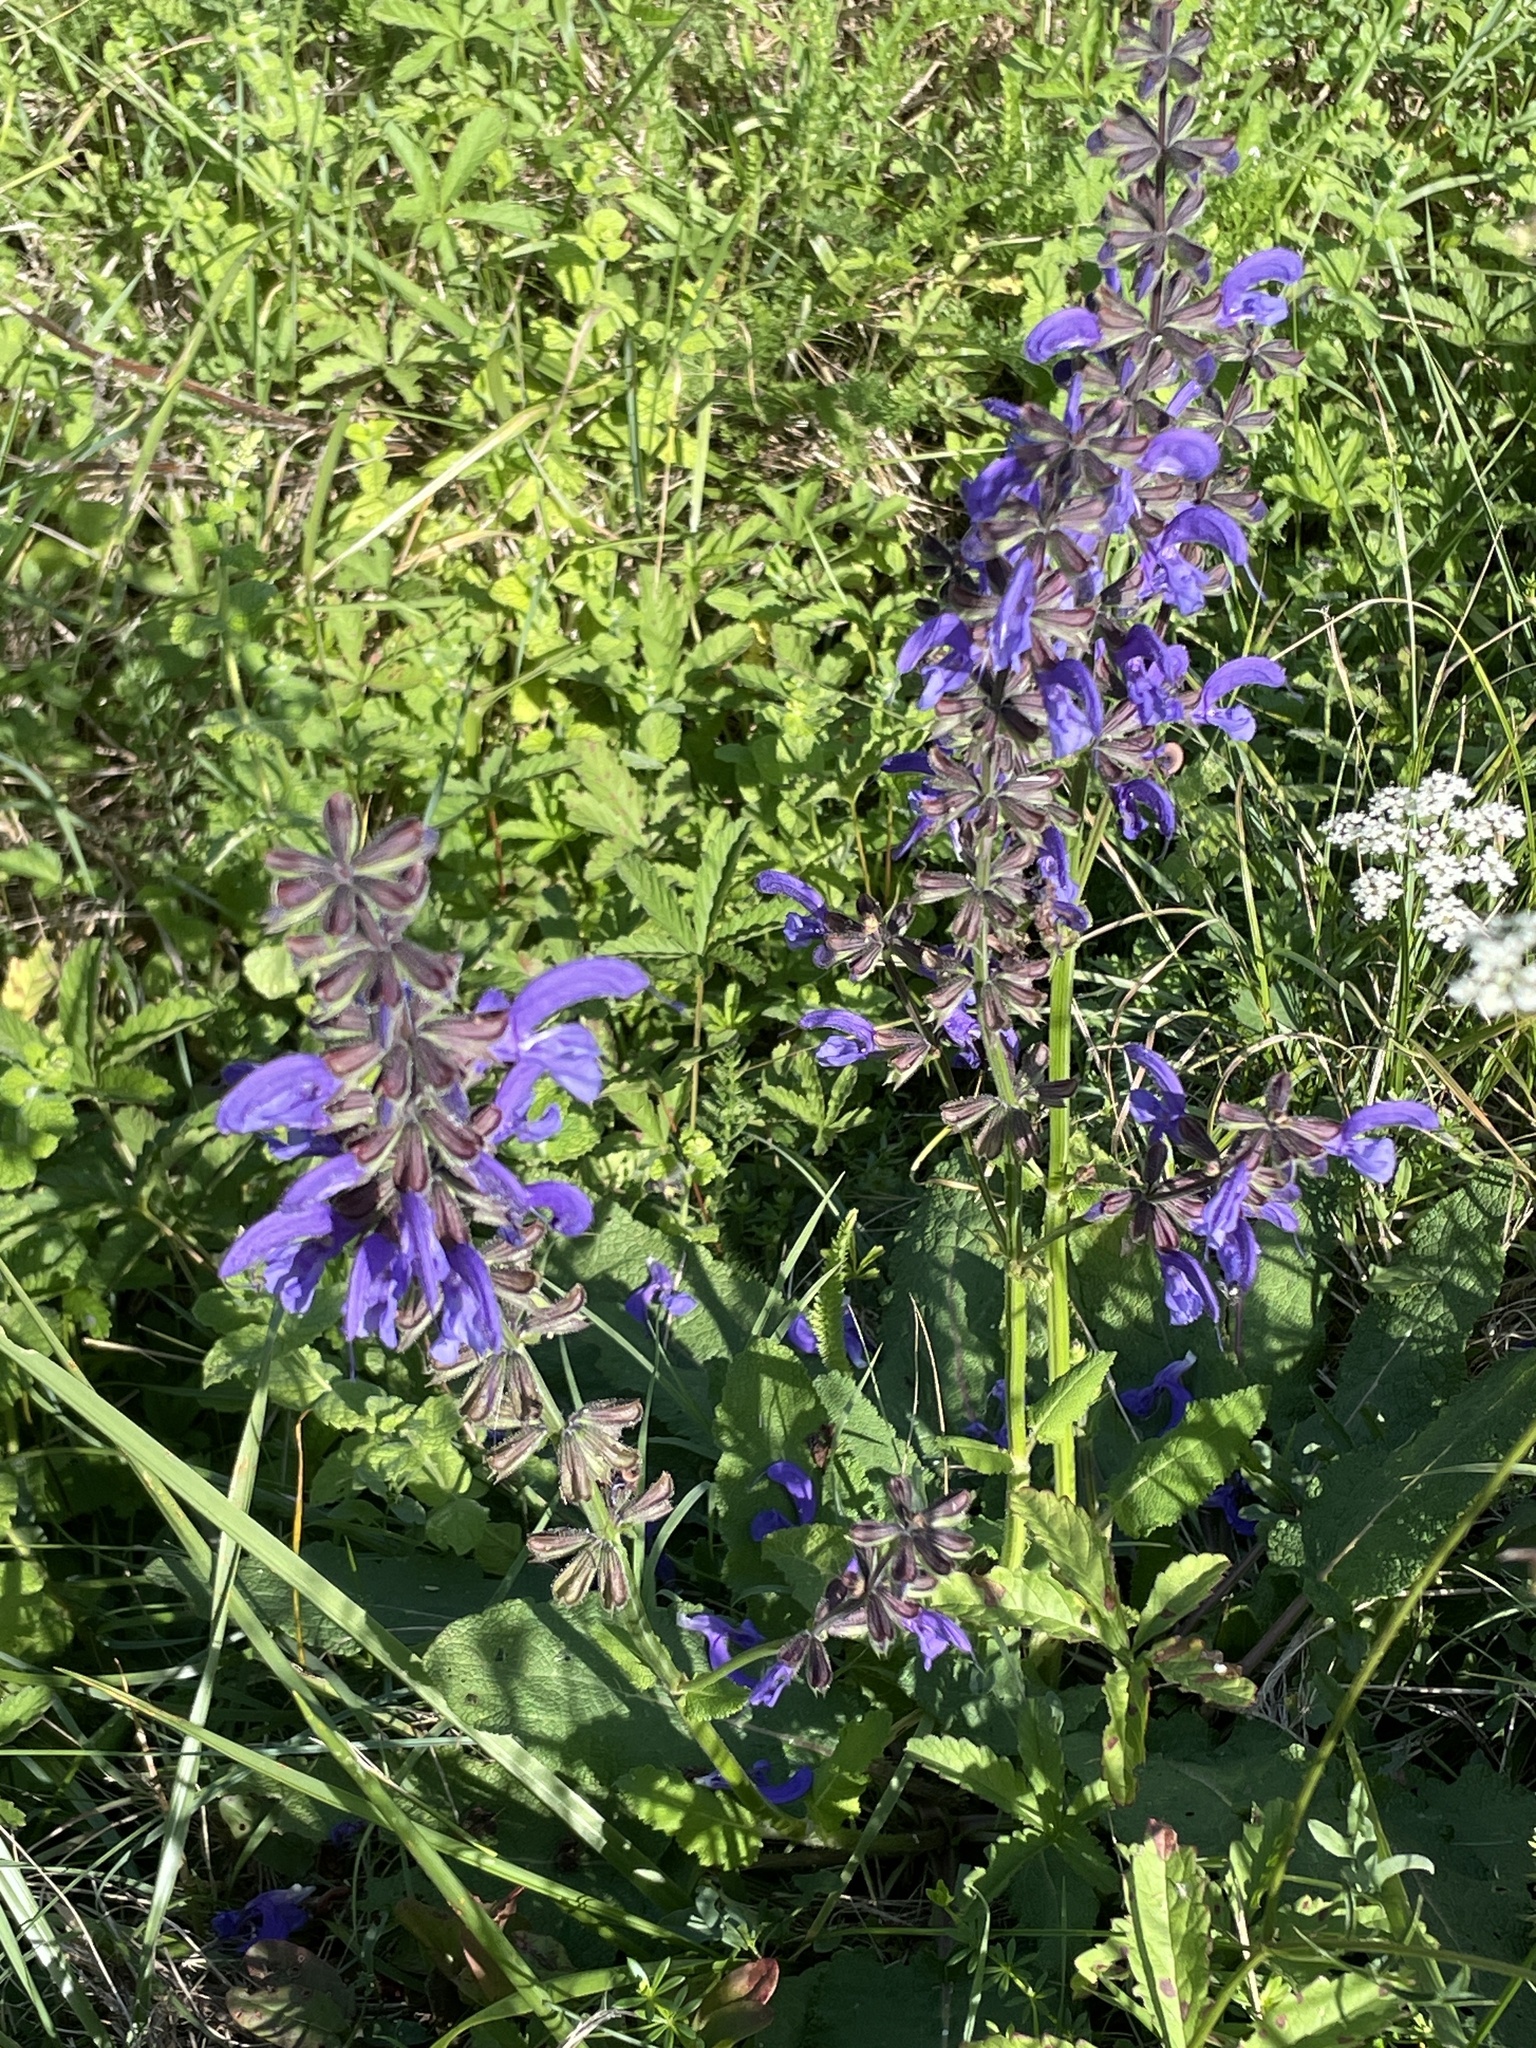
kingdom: Plantae
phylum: Tracheophyta
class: Magnoliopsida
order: Lamiales
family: Lamiaceae
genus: Salvia
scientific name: Salvia pratensis
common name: Meadow sage
